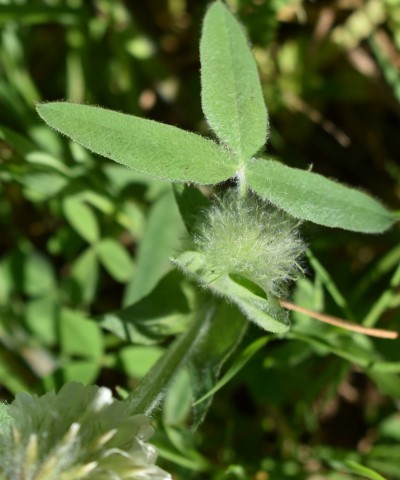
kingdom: Plantae
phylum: Tracheophyta
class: Magnoliopsida
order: Fabales
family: Fabaceae
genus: Trifolium
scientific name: Trifolium eriocephalum
